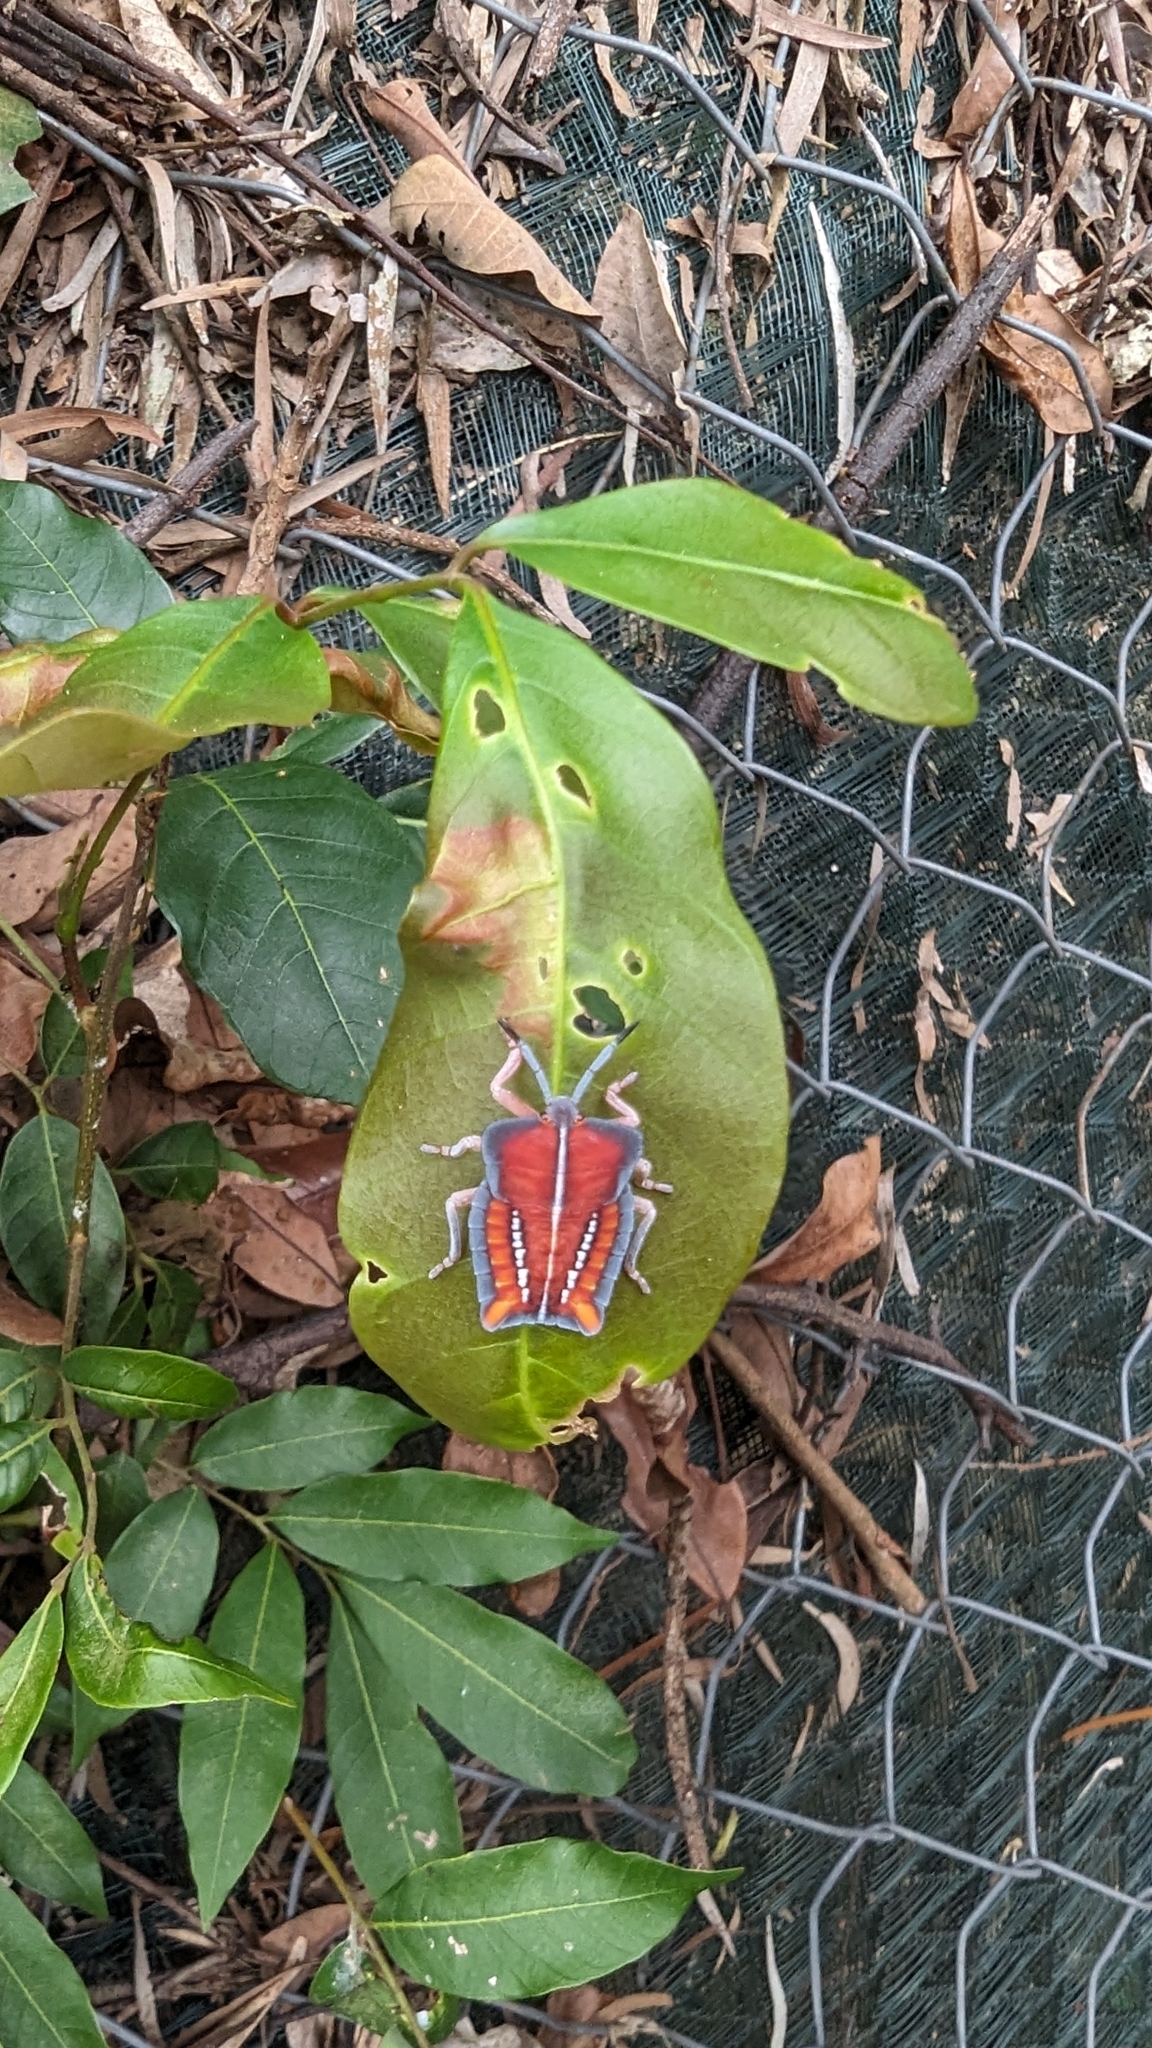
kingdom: Animalia
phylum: Arthropoda
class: Insecta
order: Hemiptera
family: Tessaratomidae
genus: Tessaratoma
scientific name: Tessaratoma papillosa
